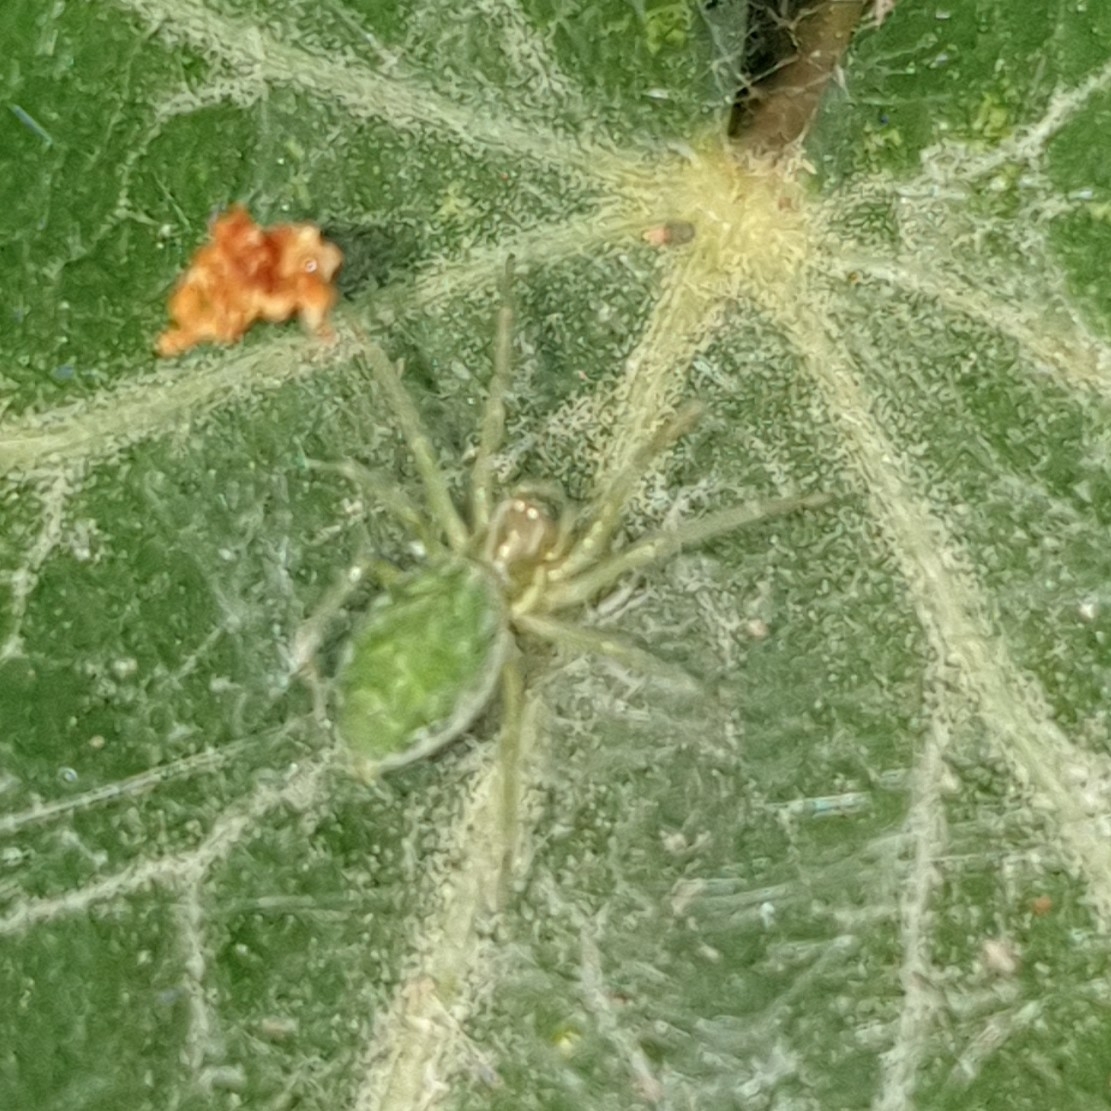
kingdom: Animalia
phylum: Arthropoda
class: Arachnida
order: Araneae
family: Dictynidae
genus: Nigma
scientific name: Nigma walckenaeri
